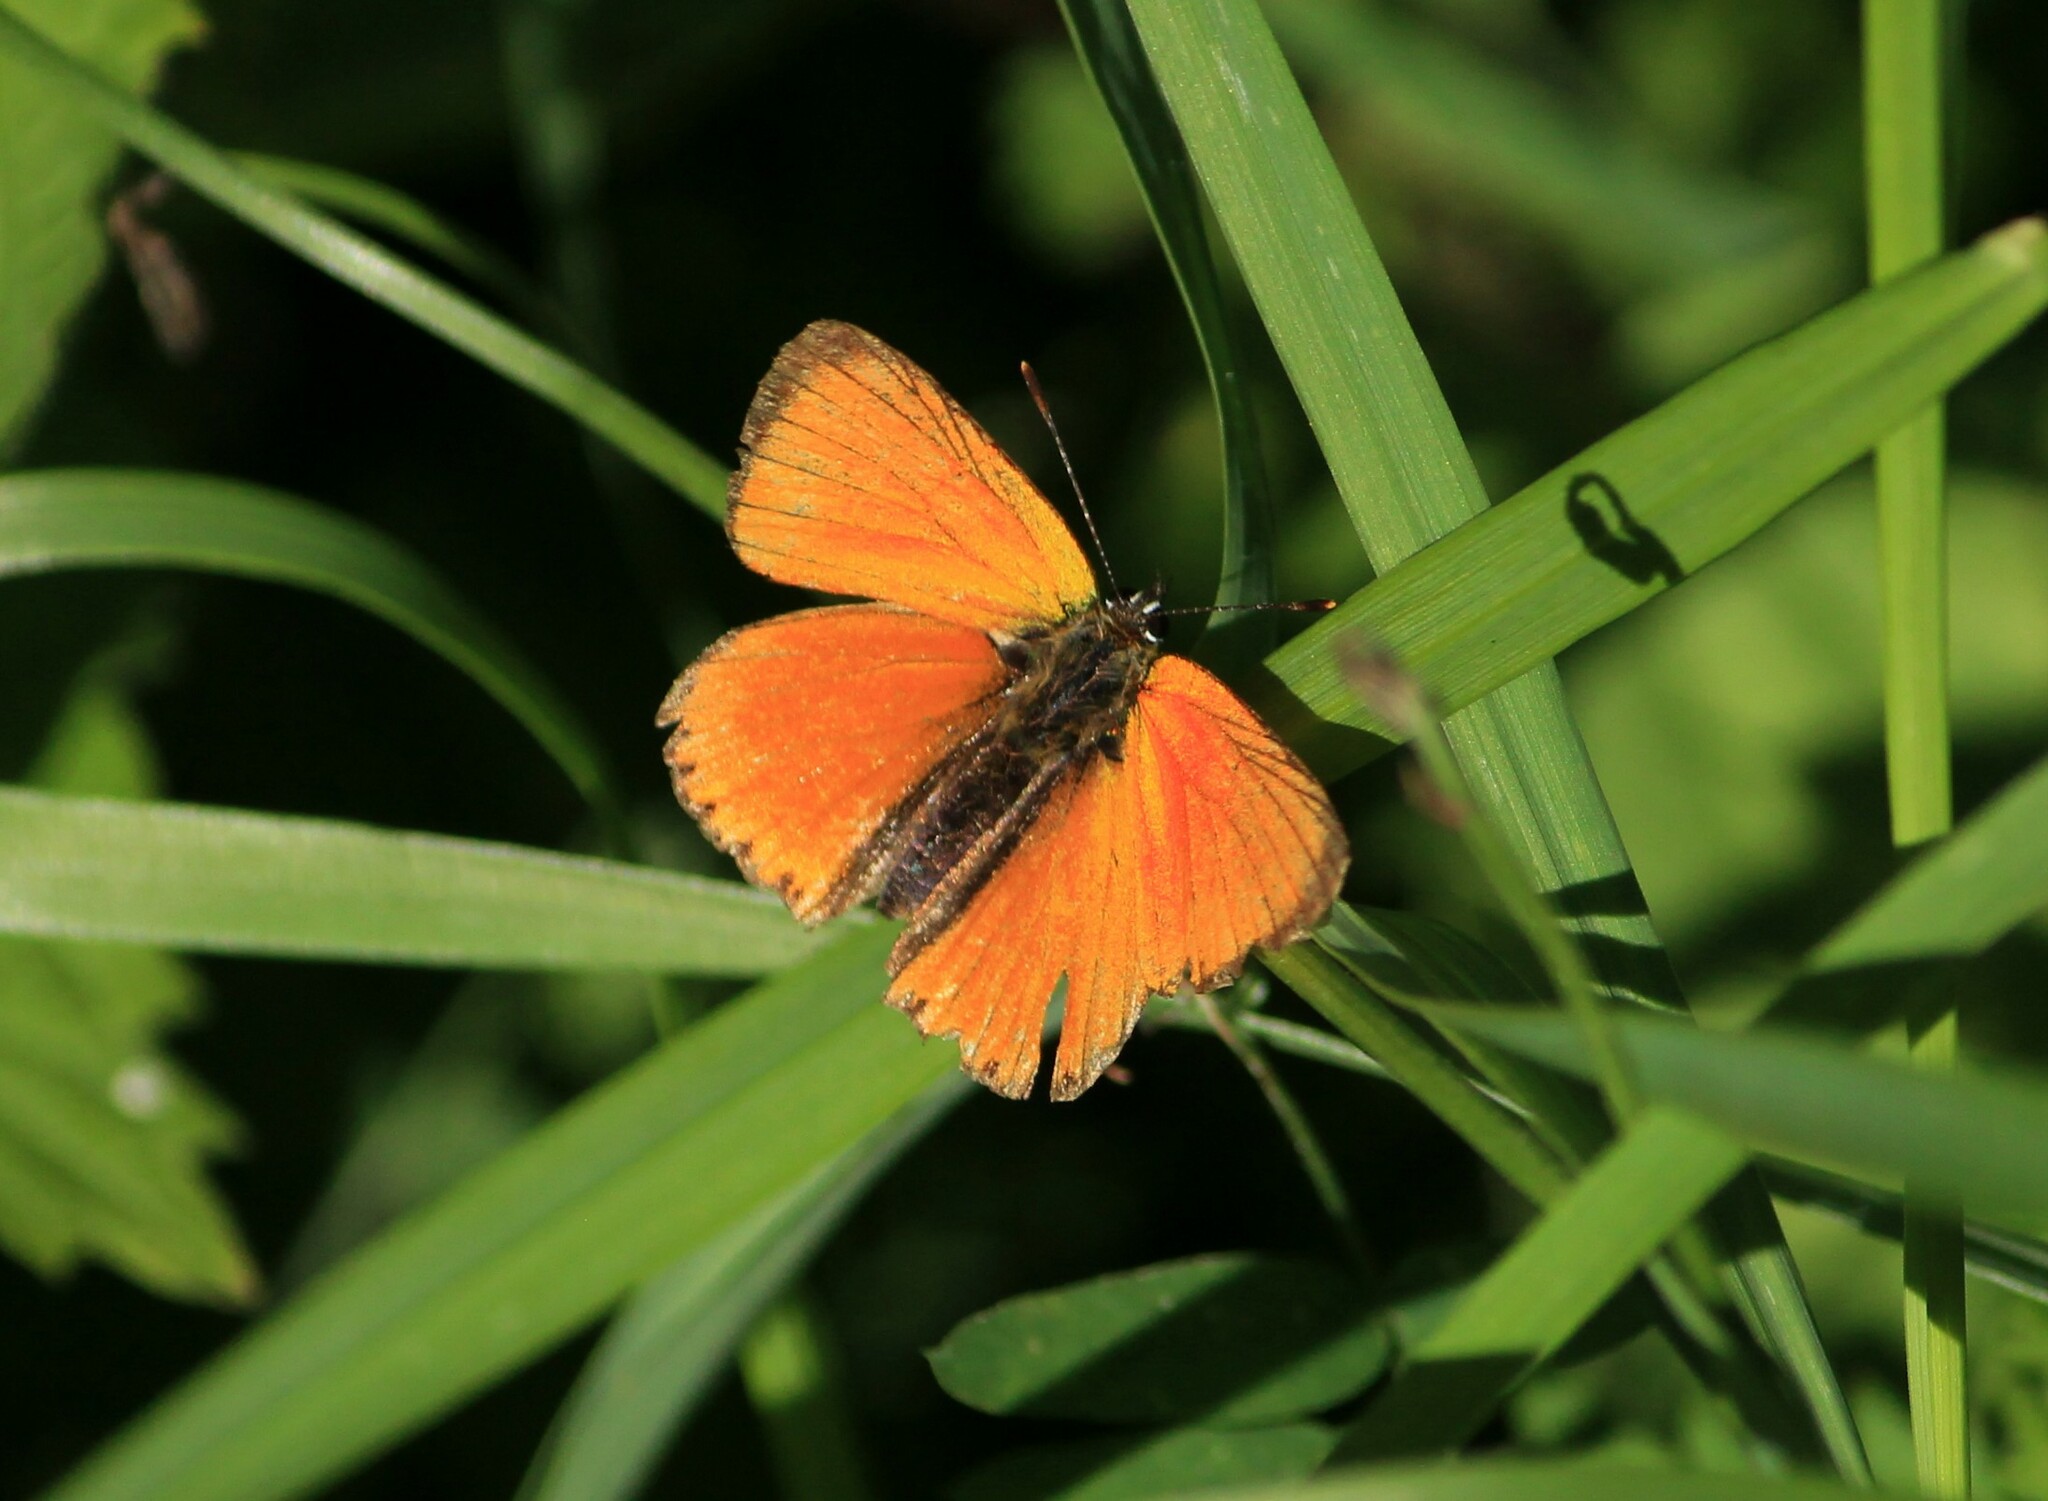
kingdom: Animalia
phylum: Arthropoda
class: Insecta
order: Lepidoptera
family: Lycaenidae
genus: Lycaena
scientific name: Lycaena virgaureae
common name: Scarce copper
